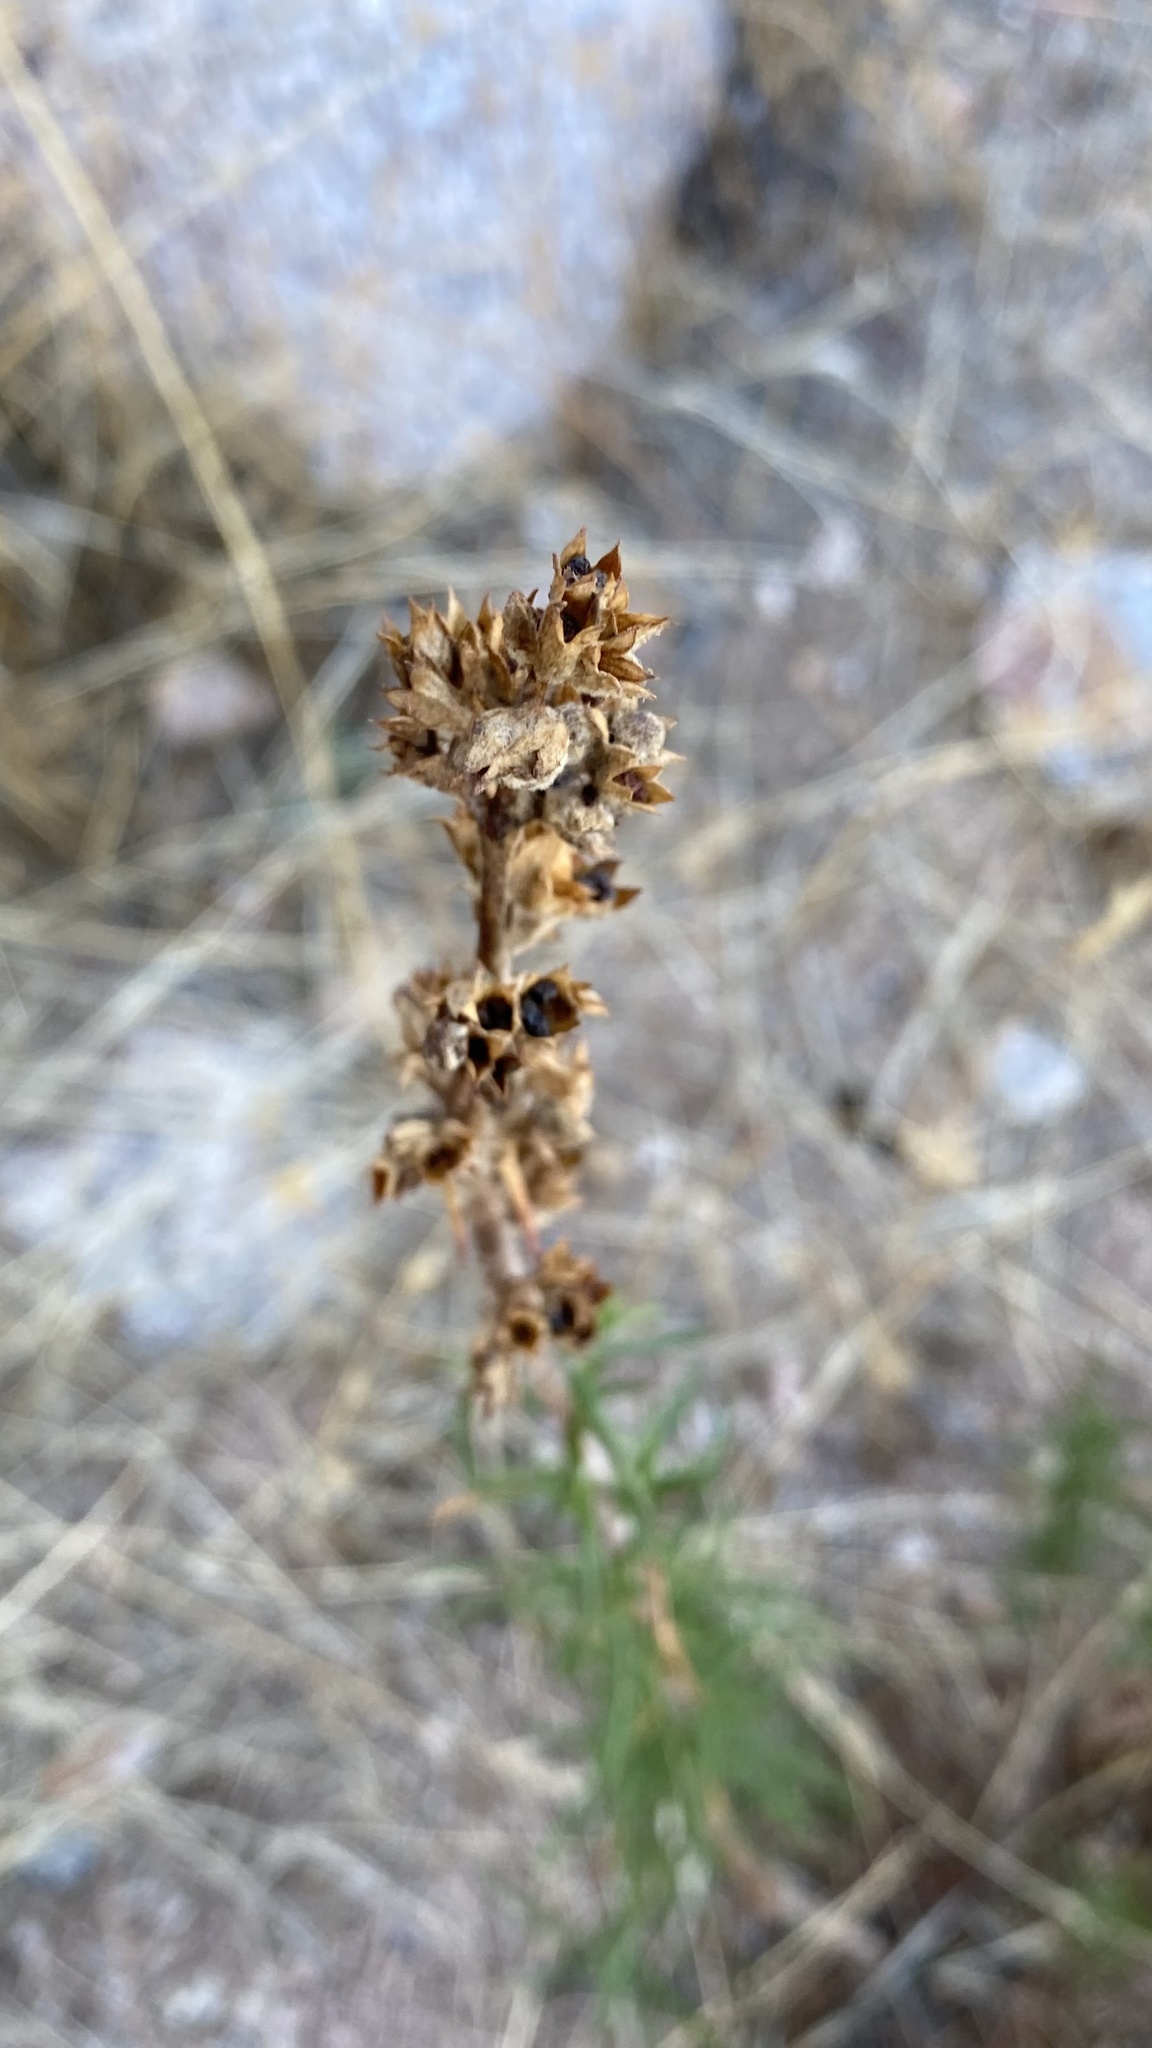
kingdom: Plantae
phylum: Tracheophyta
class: Magnoliopsida
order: Lamiales
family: Lamiaceae
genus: Trichostema
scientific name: Trichostema lanatum
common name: Woolly bluecurls
